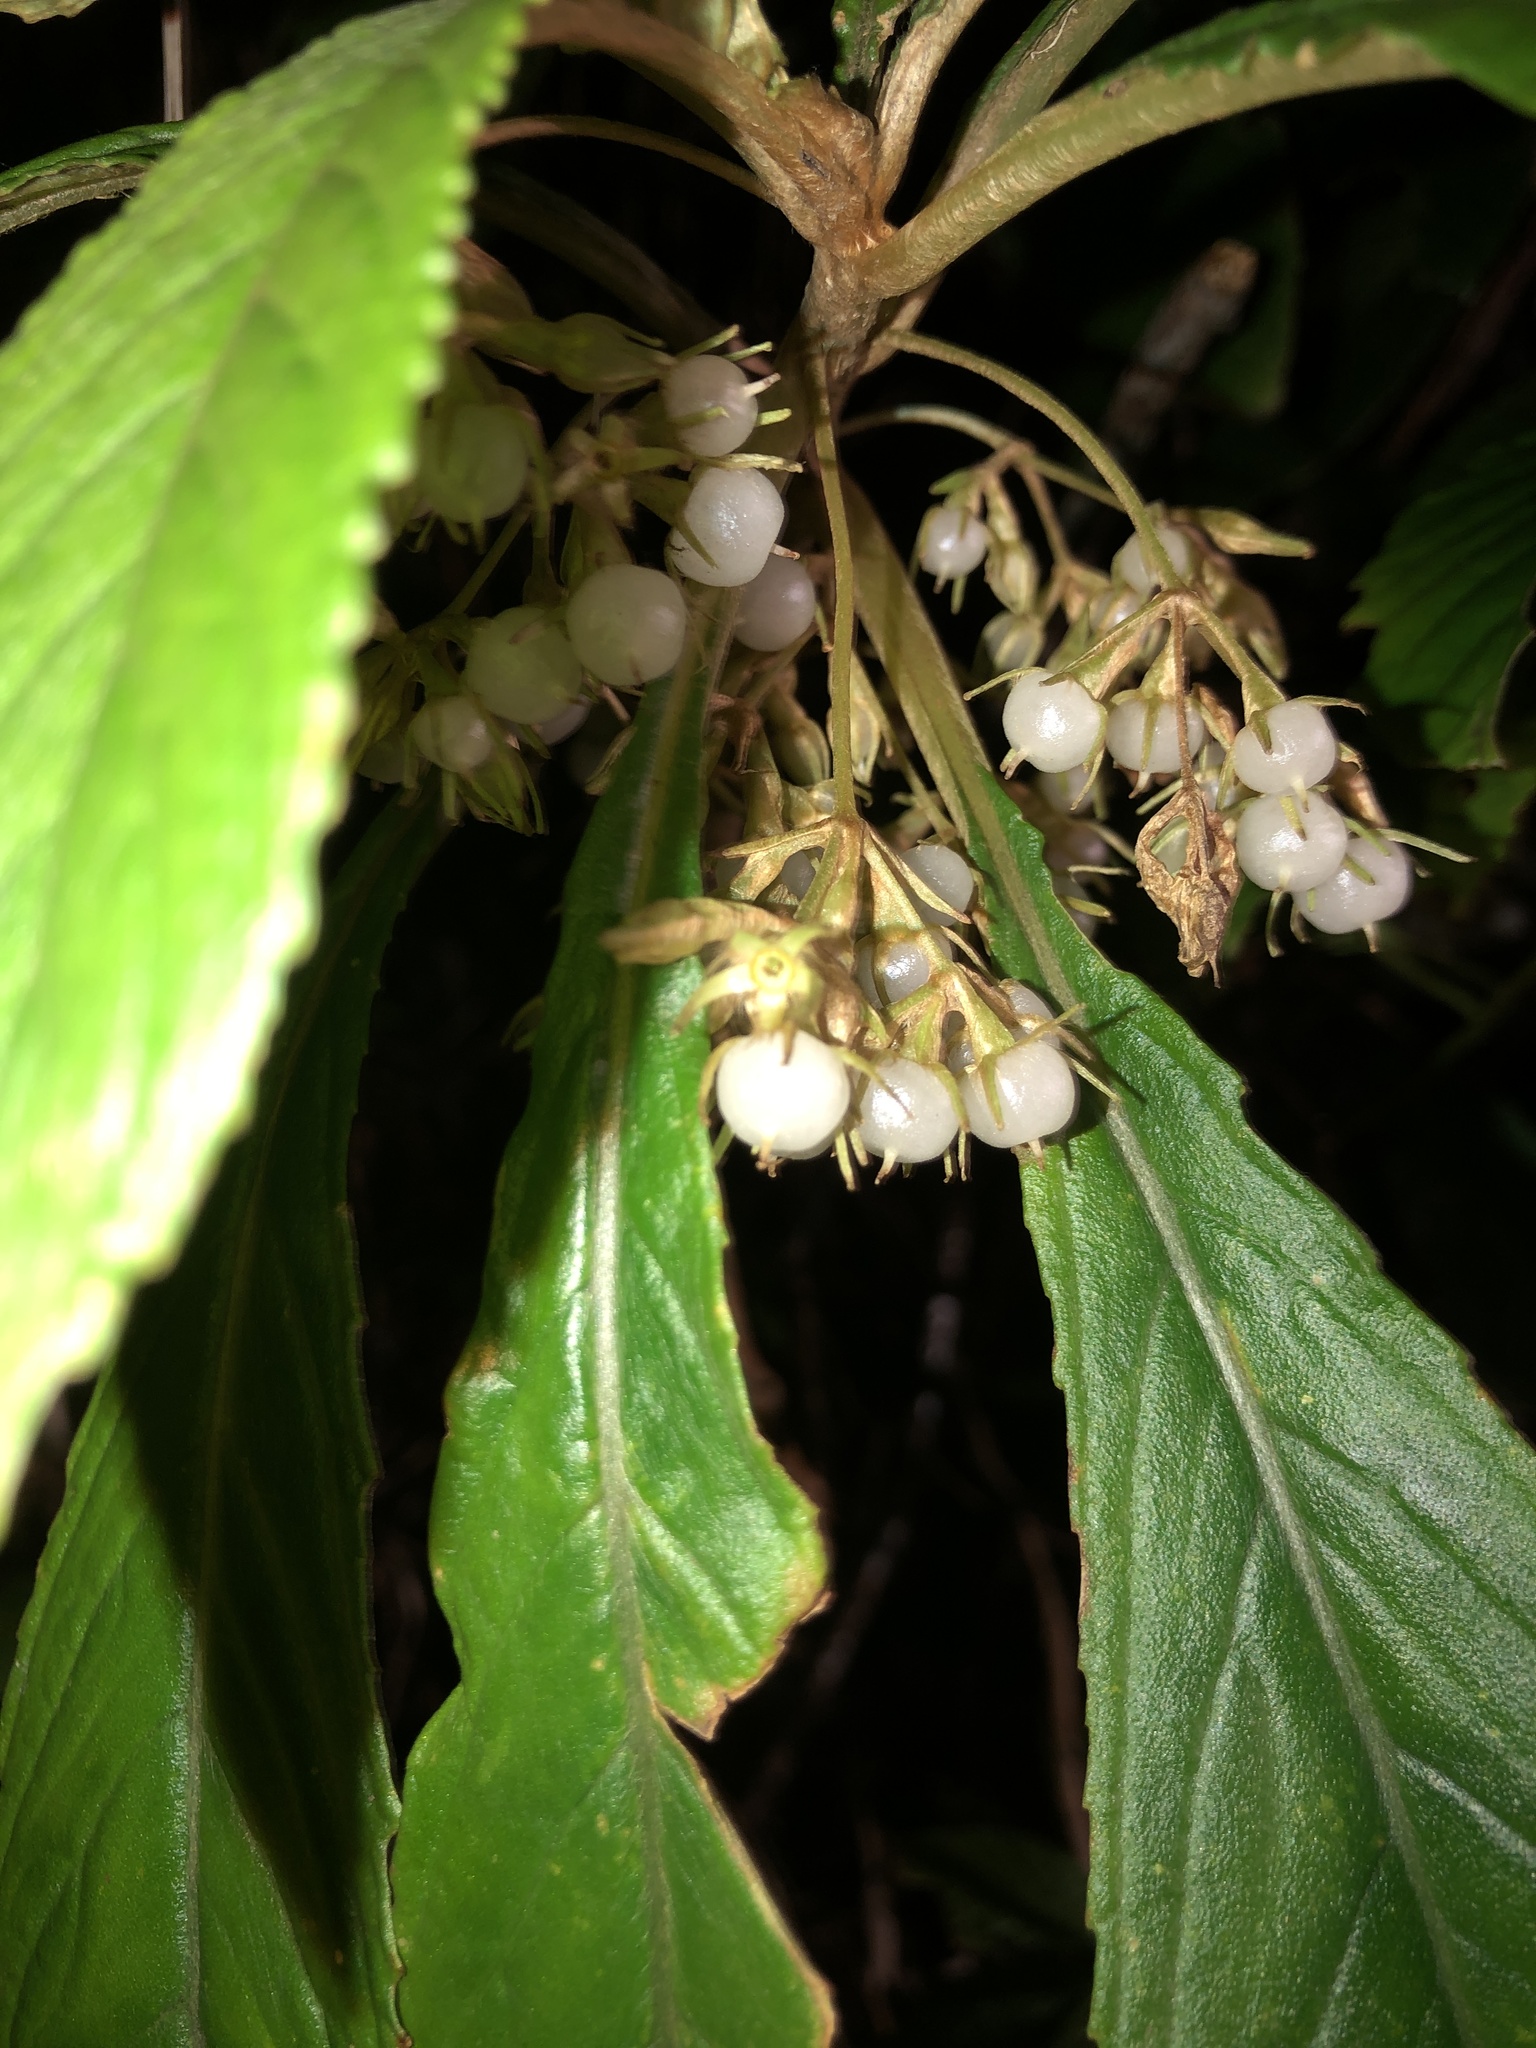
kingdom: Plantae
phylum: Tracheophyta
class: Magnoliopsida
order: Lamiales
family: Gesneriaceae
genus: Rhynchotechum
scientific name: Rhynchotechum discolor
